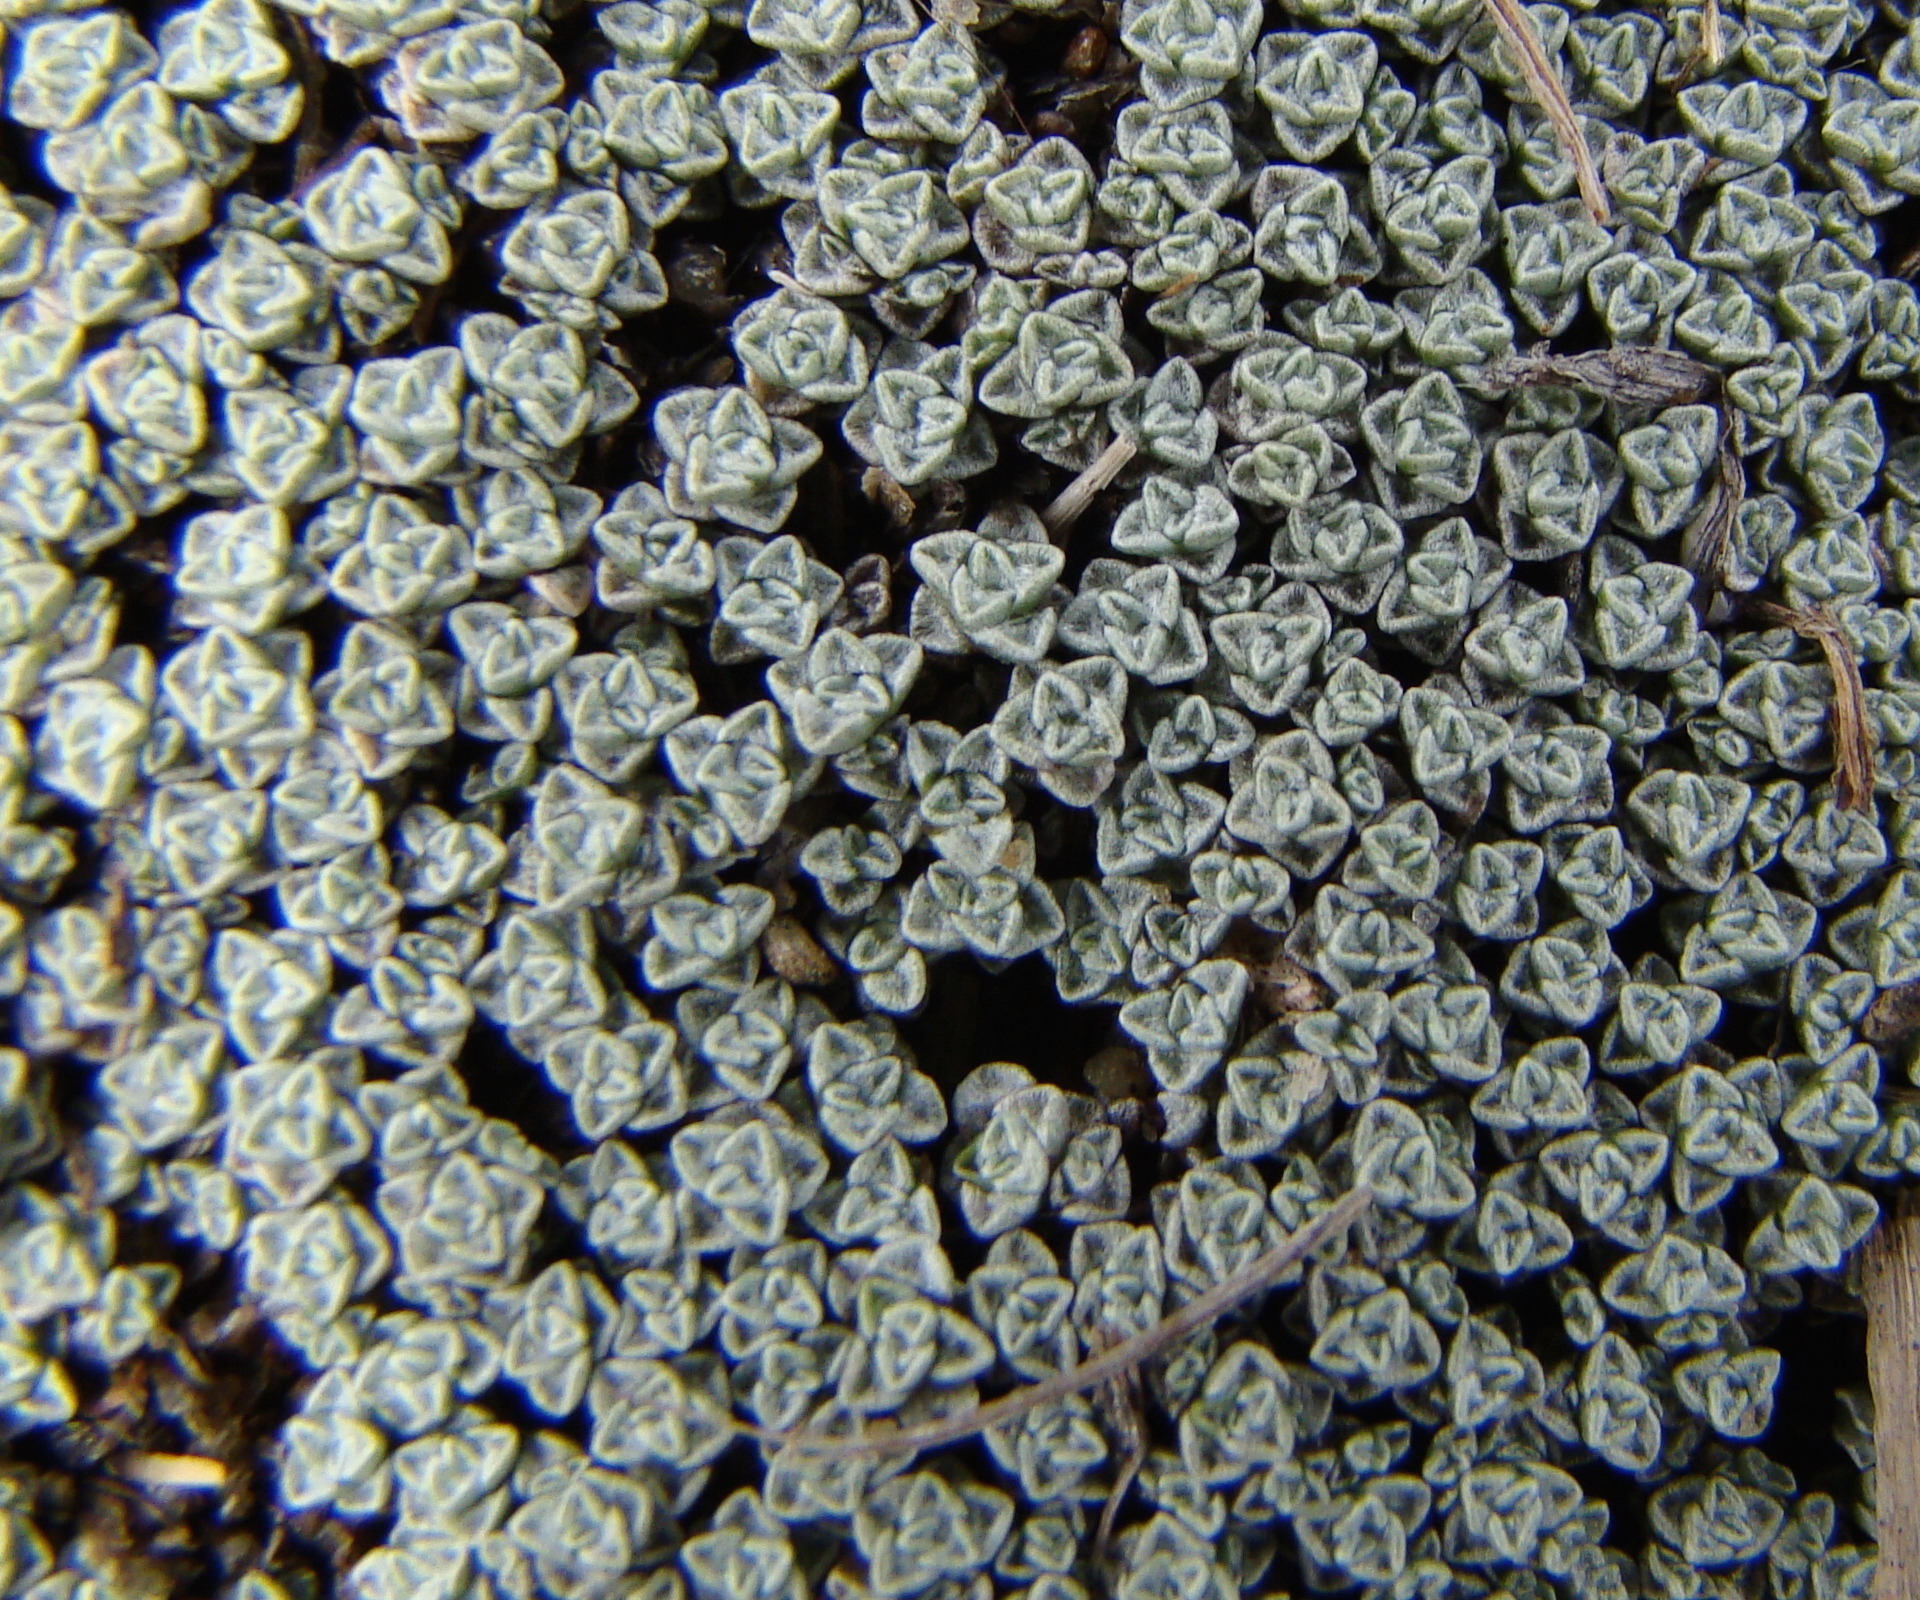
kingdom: Plantae
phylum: Tracheophyta
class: Magnoliopsida
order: Asterales
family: Asteraceae
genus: Raoulia
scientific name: Raoulia australis
